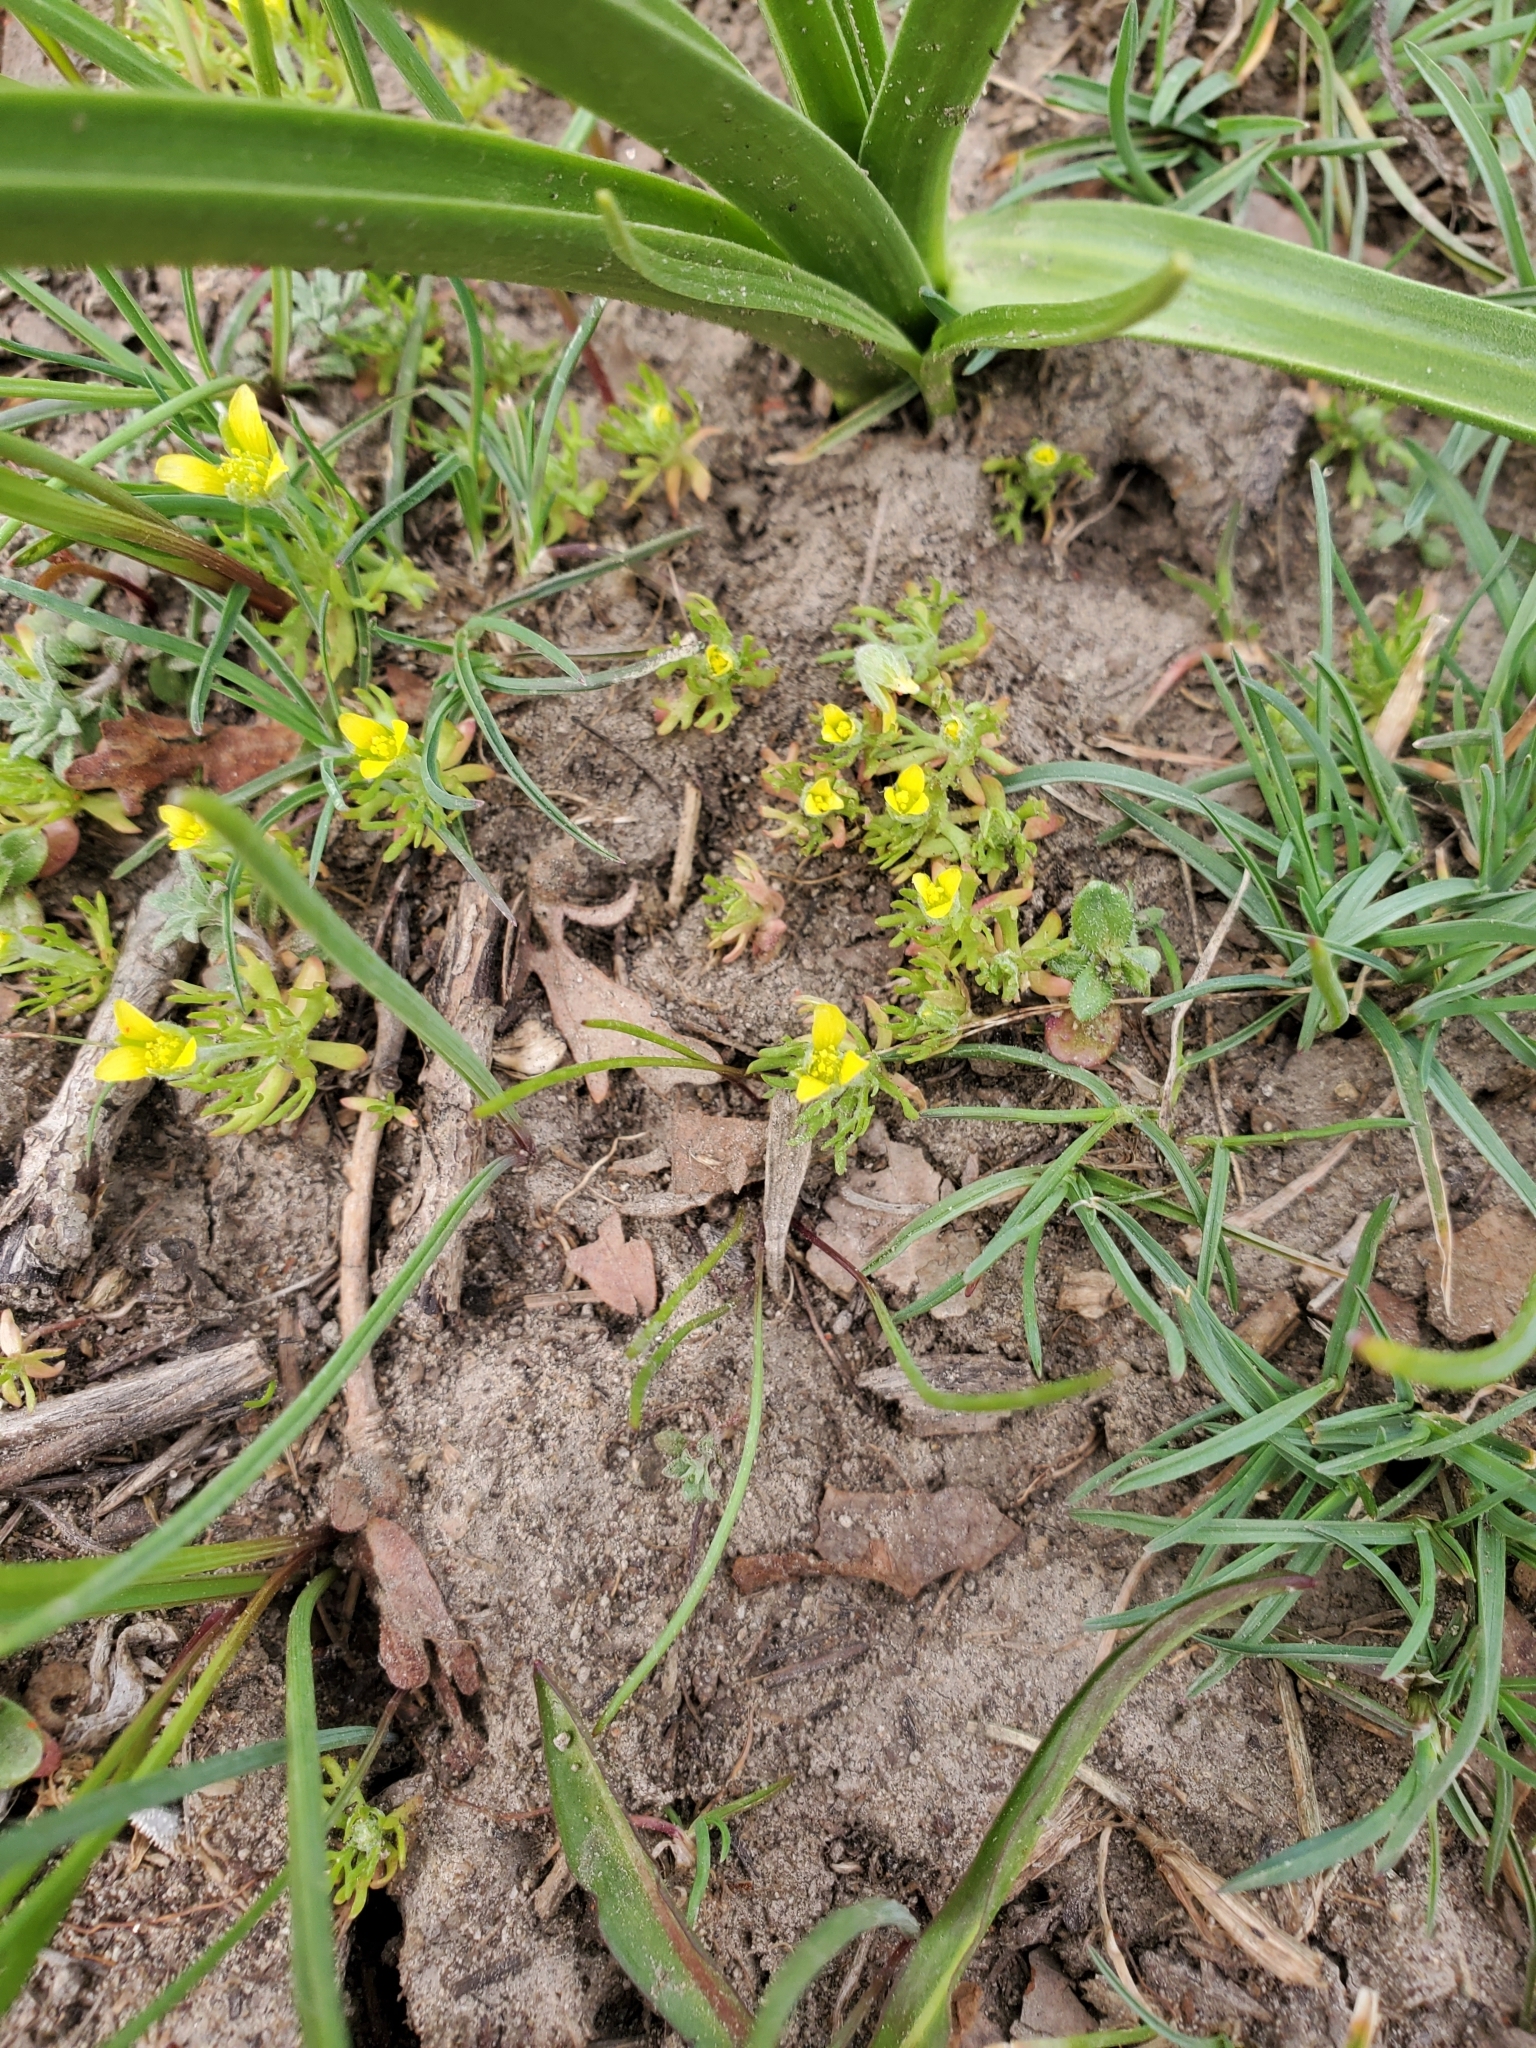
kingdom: Plantae
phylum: Tracheophyta
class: Magnoliopsida
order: Ranunculales
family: Ranunculaceae
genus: Ceratocephala
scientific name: Ceratocephala orthoceras
